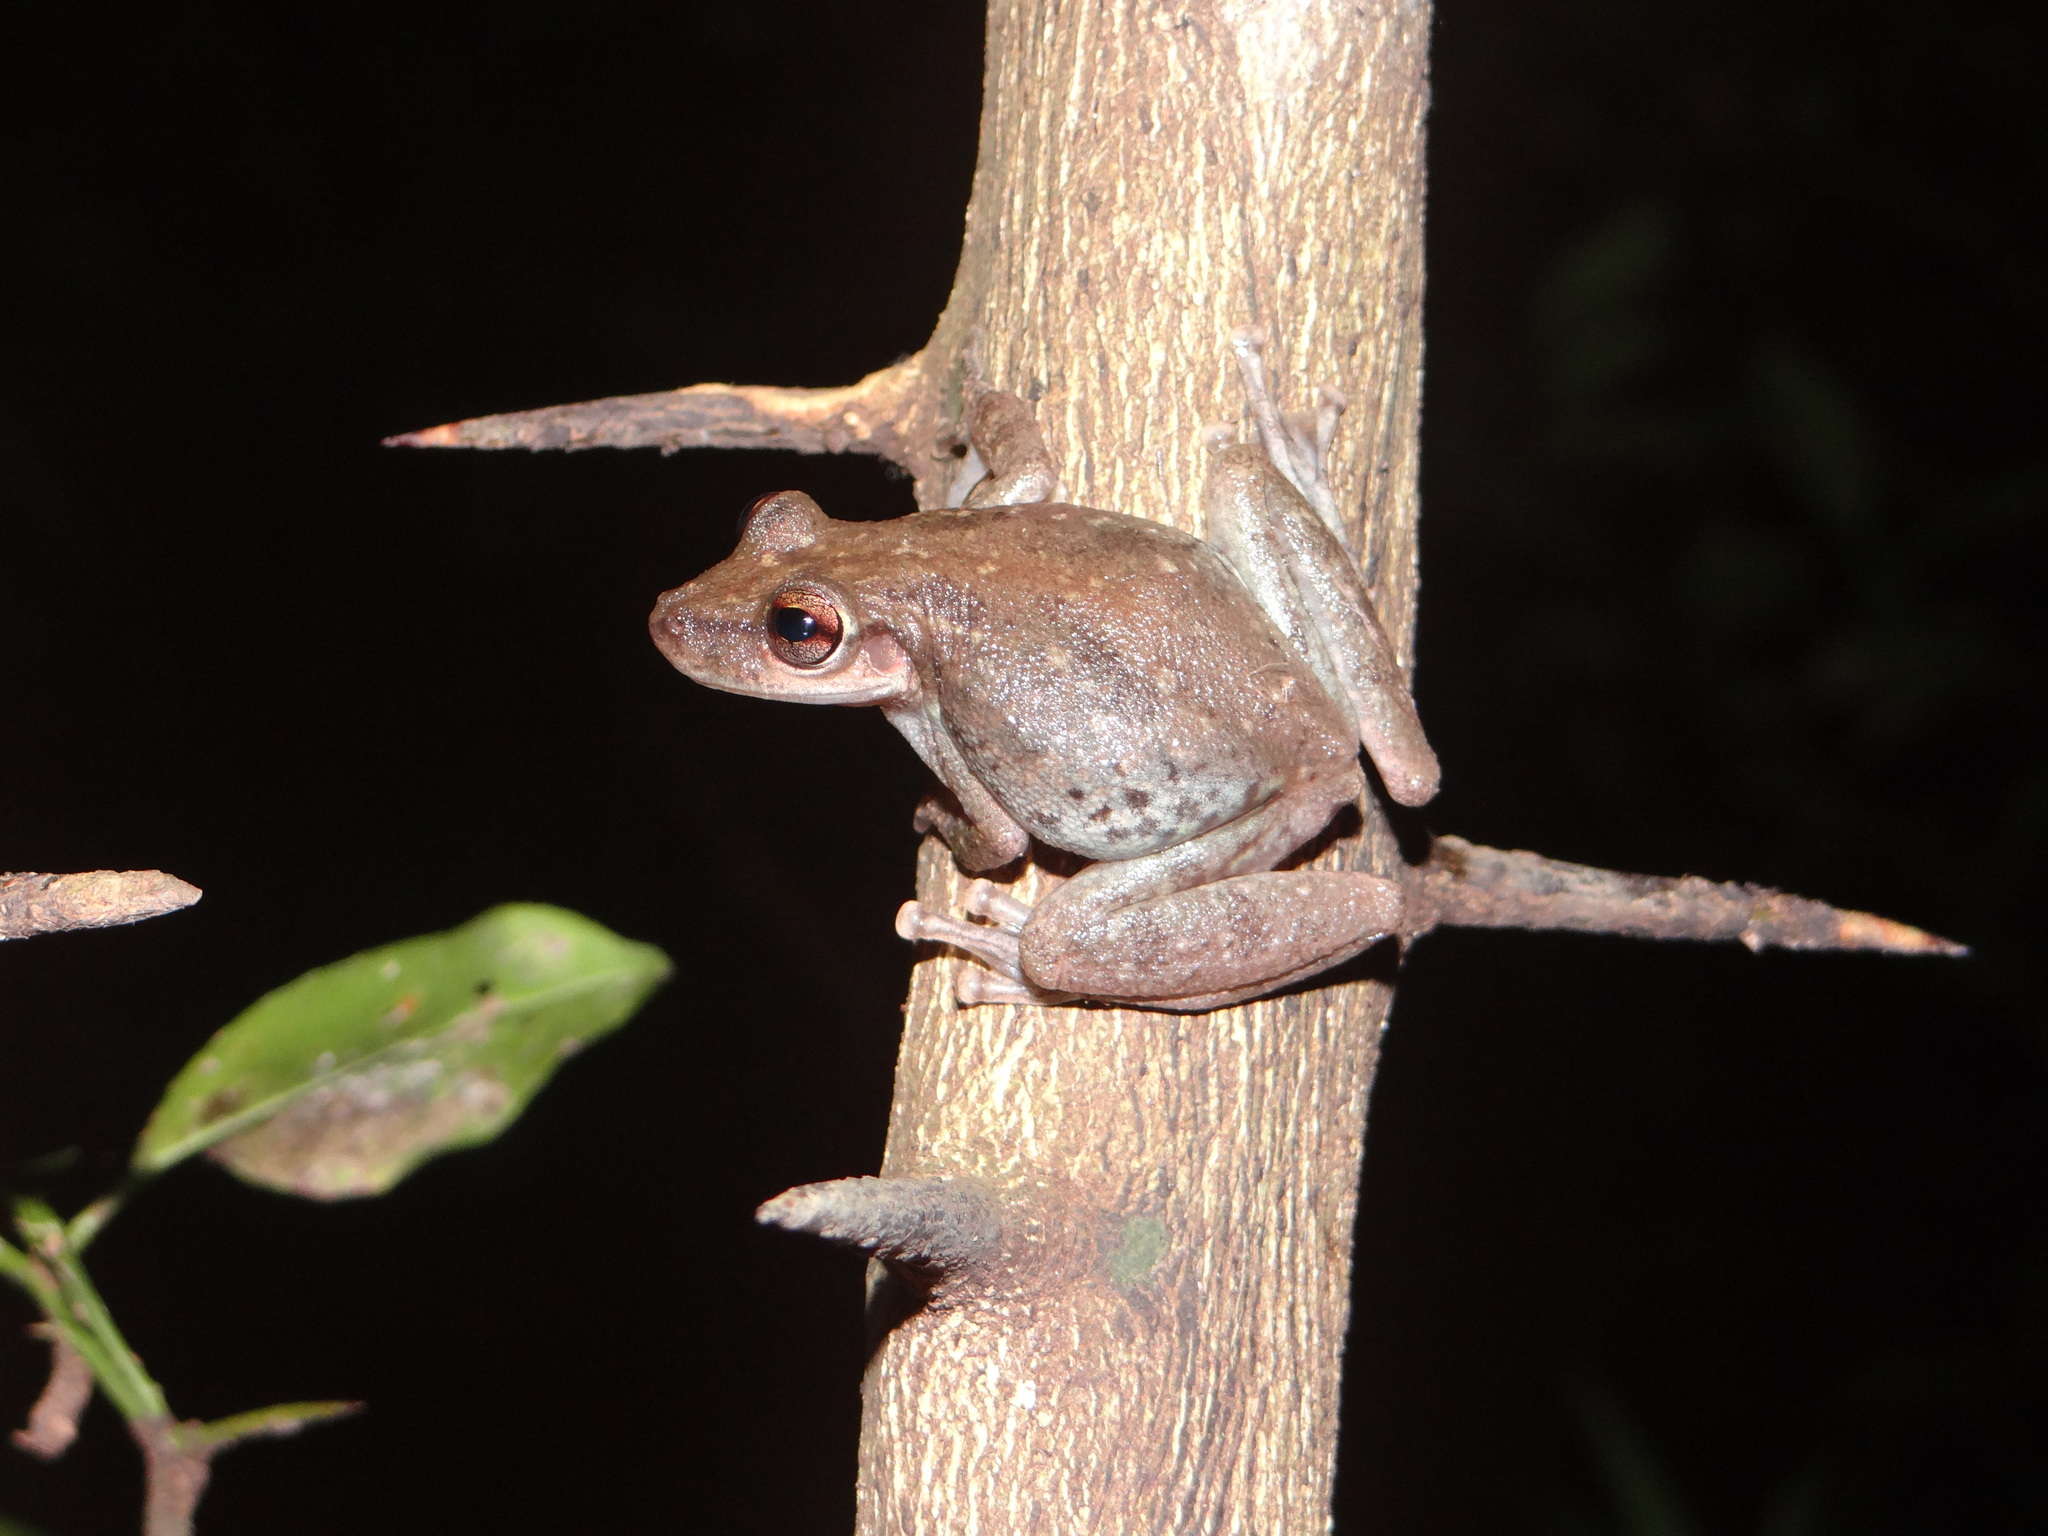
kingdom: Animalia
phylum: Chordata
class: Amphibia
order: Anura
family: Hylidae
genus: Scinax
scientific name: Scinax ruber
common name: Red snouted treefrog
